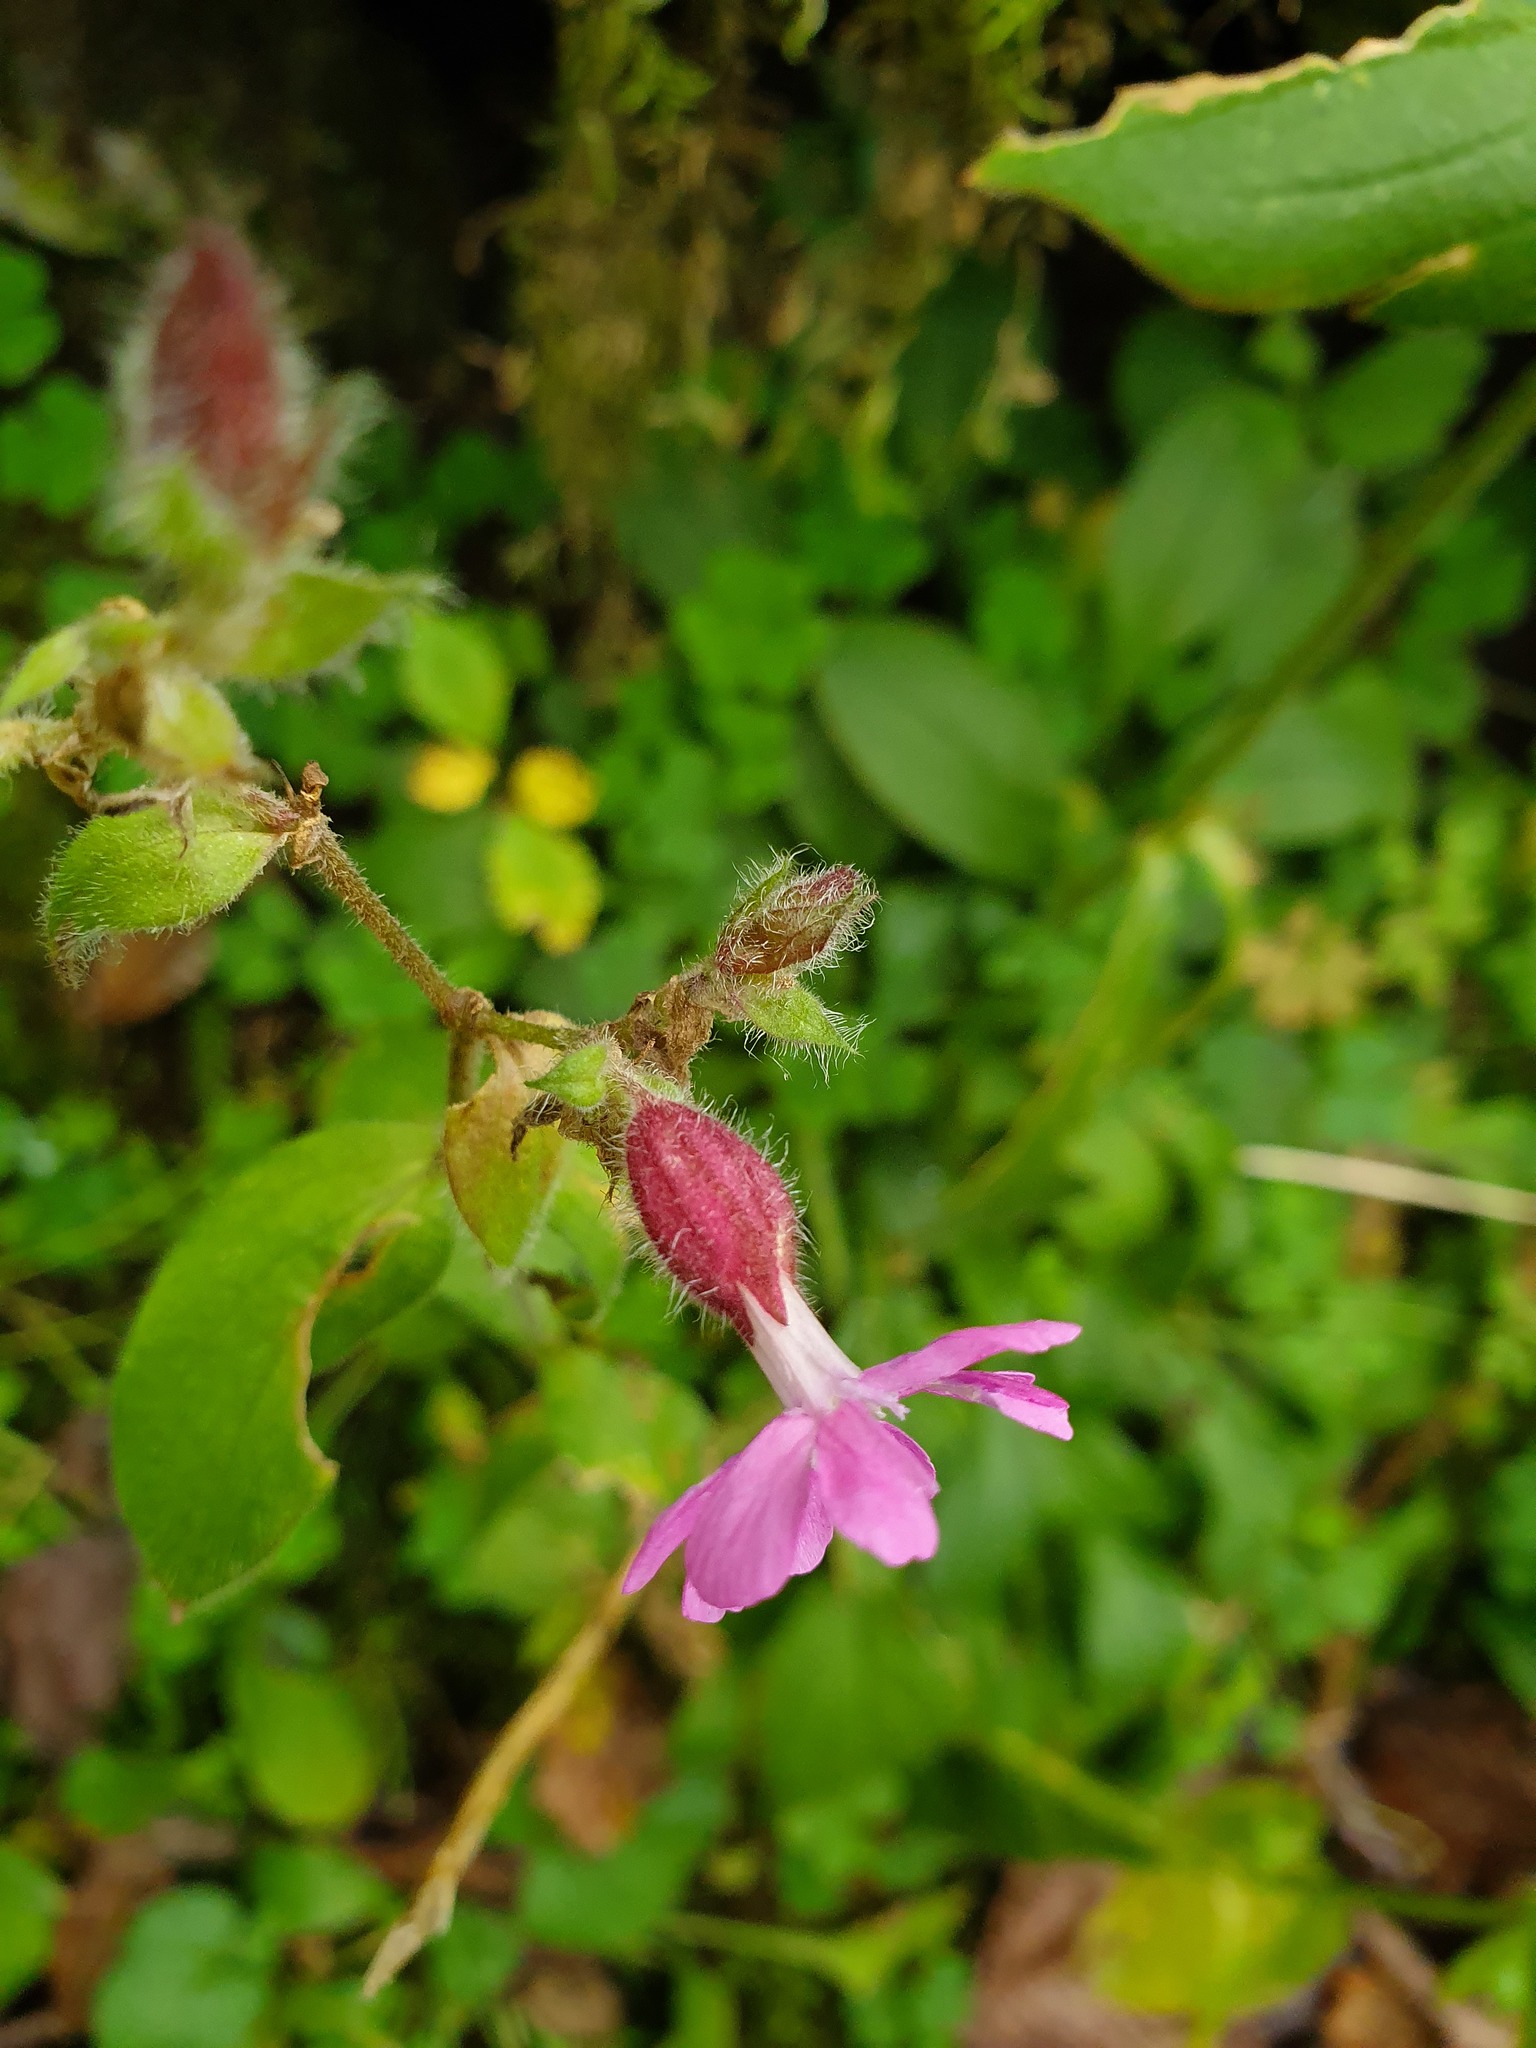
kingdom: Plantae
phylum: Tracheophyta
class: Magnoliopsida
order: Caryophyllales
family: Caryophyllaceae
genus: Silene
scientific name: Silene dioica
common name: Red campion
